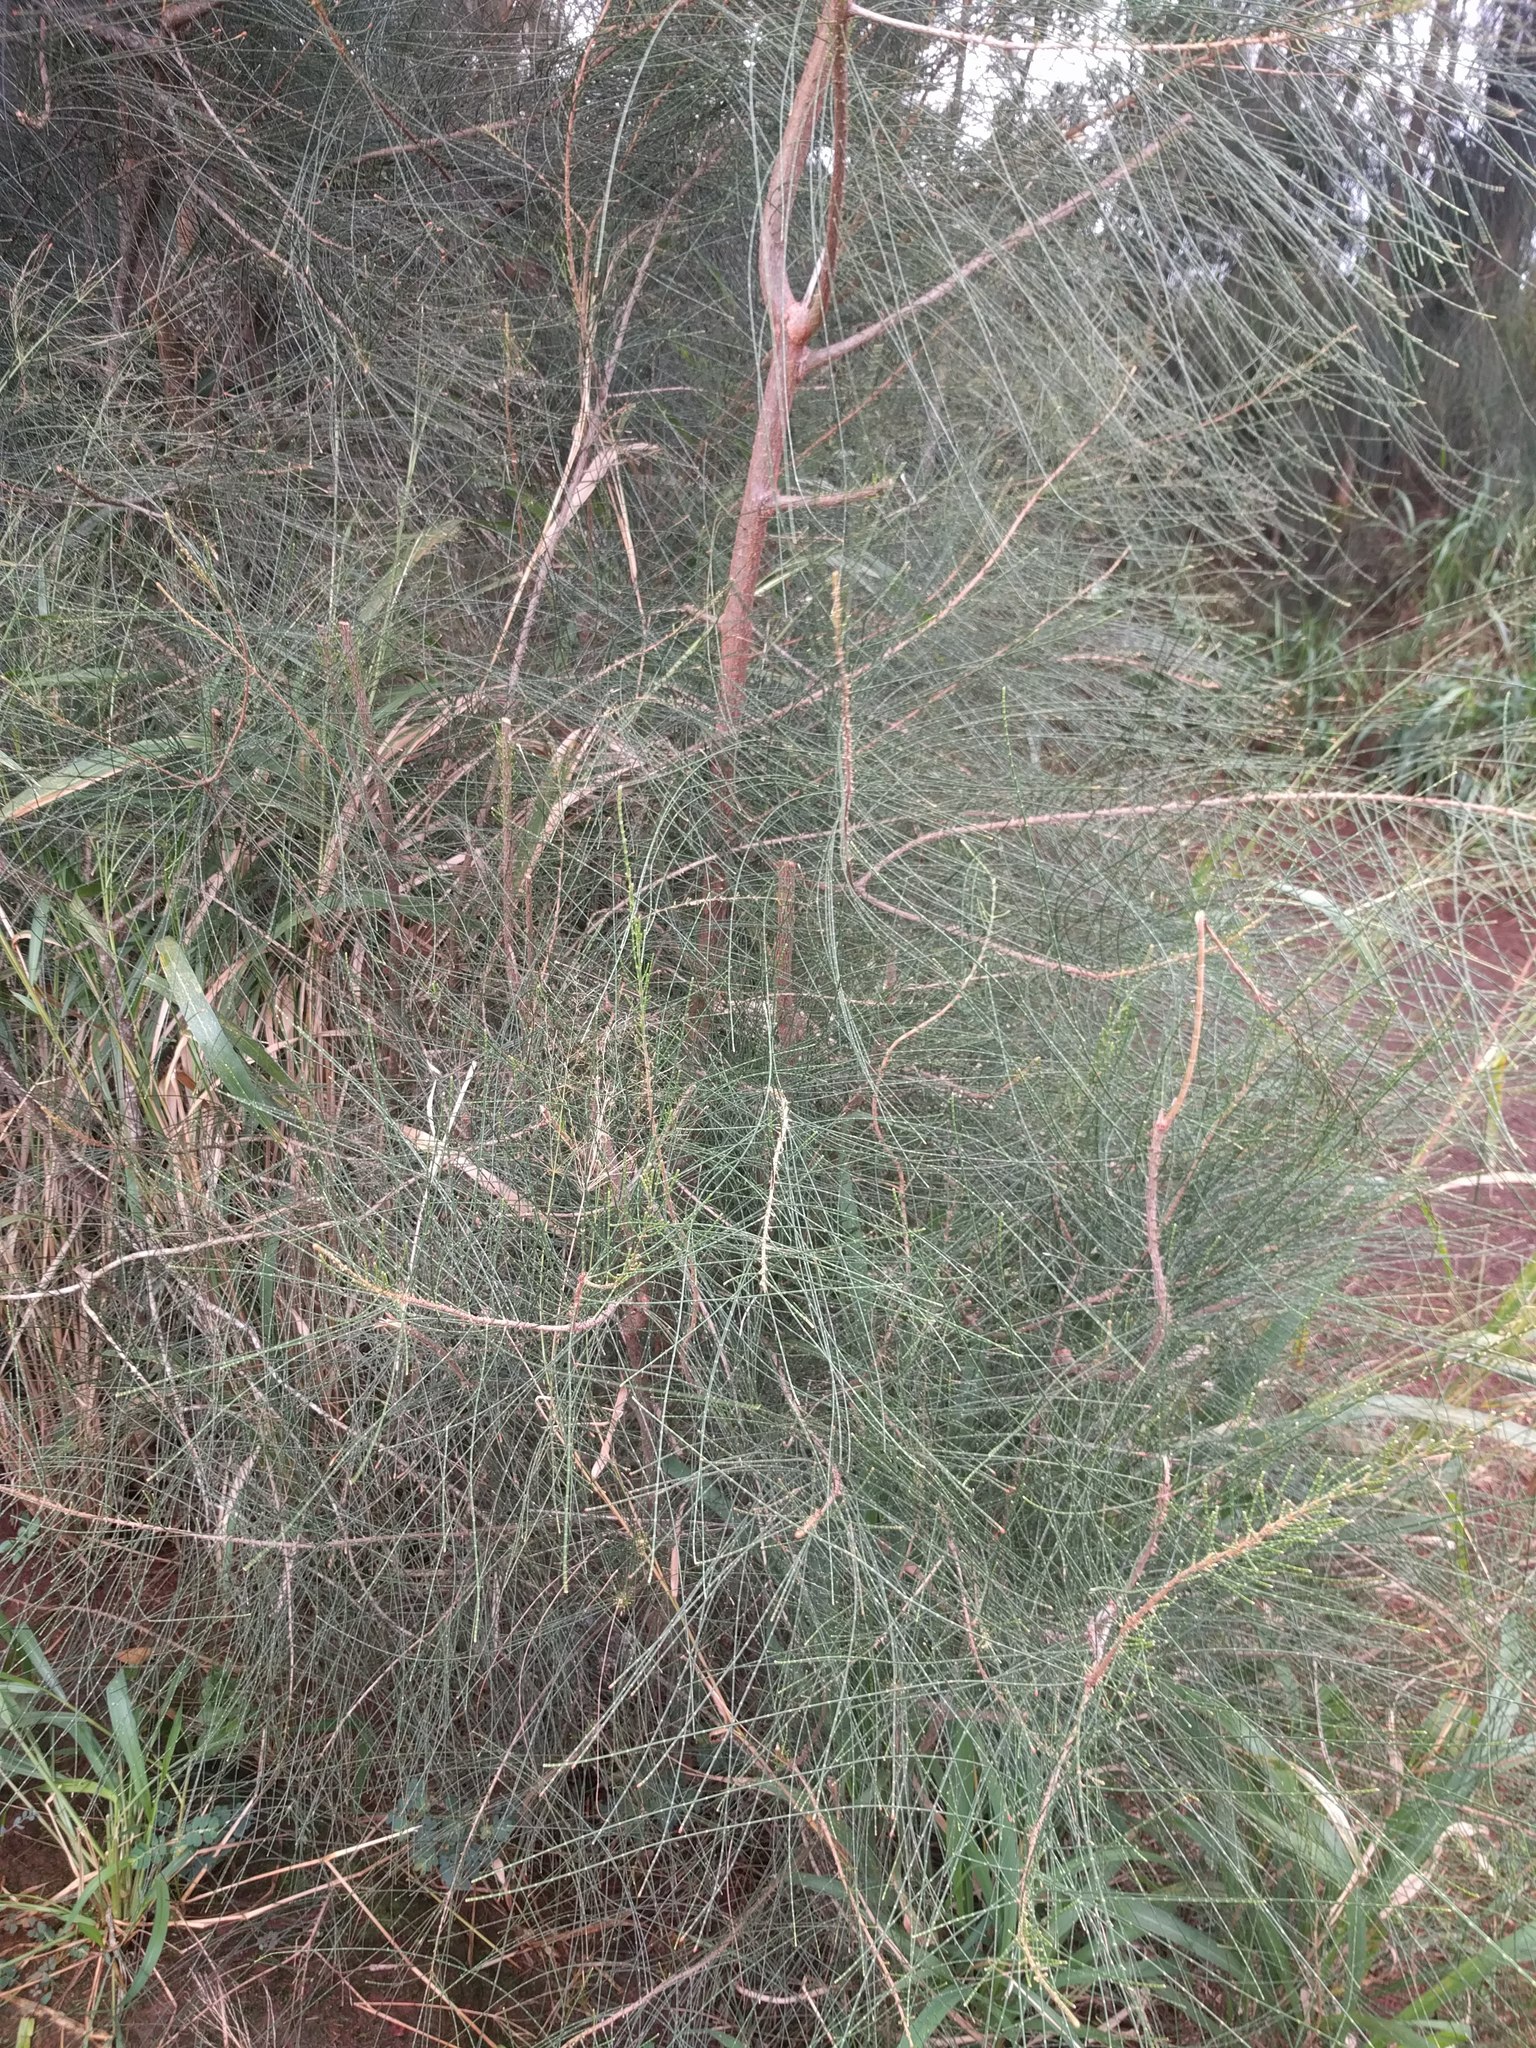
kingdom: Plantae
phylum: Tracheophyta
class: Magnoliopsida
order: Fagales
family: Casuarinaceae
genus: Casuarina
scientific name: Casuarina equisetifolia
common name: Beach sheoak
